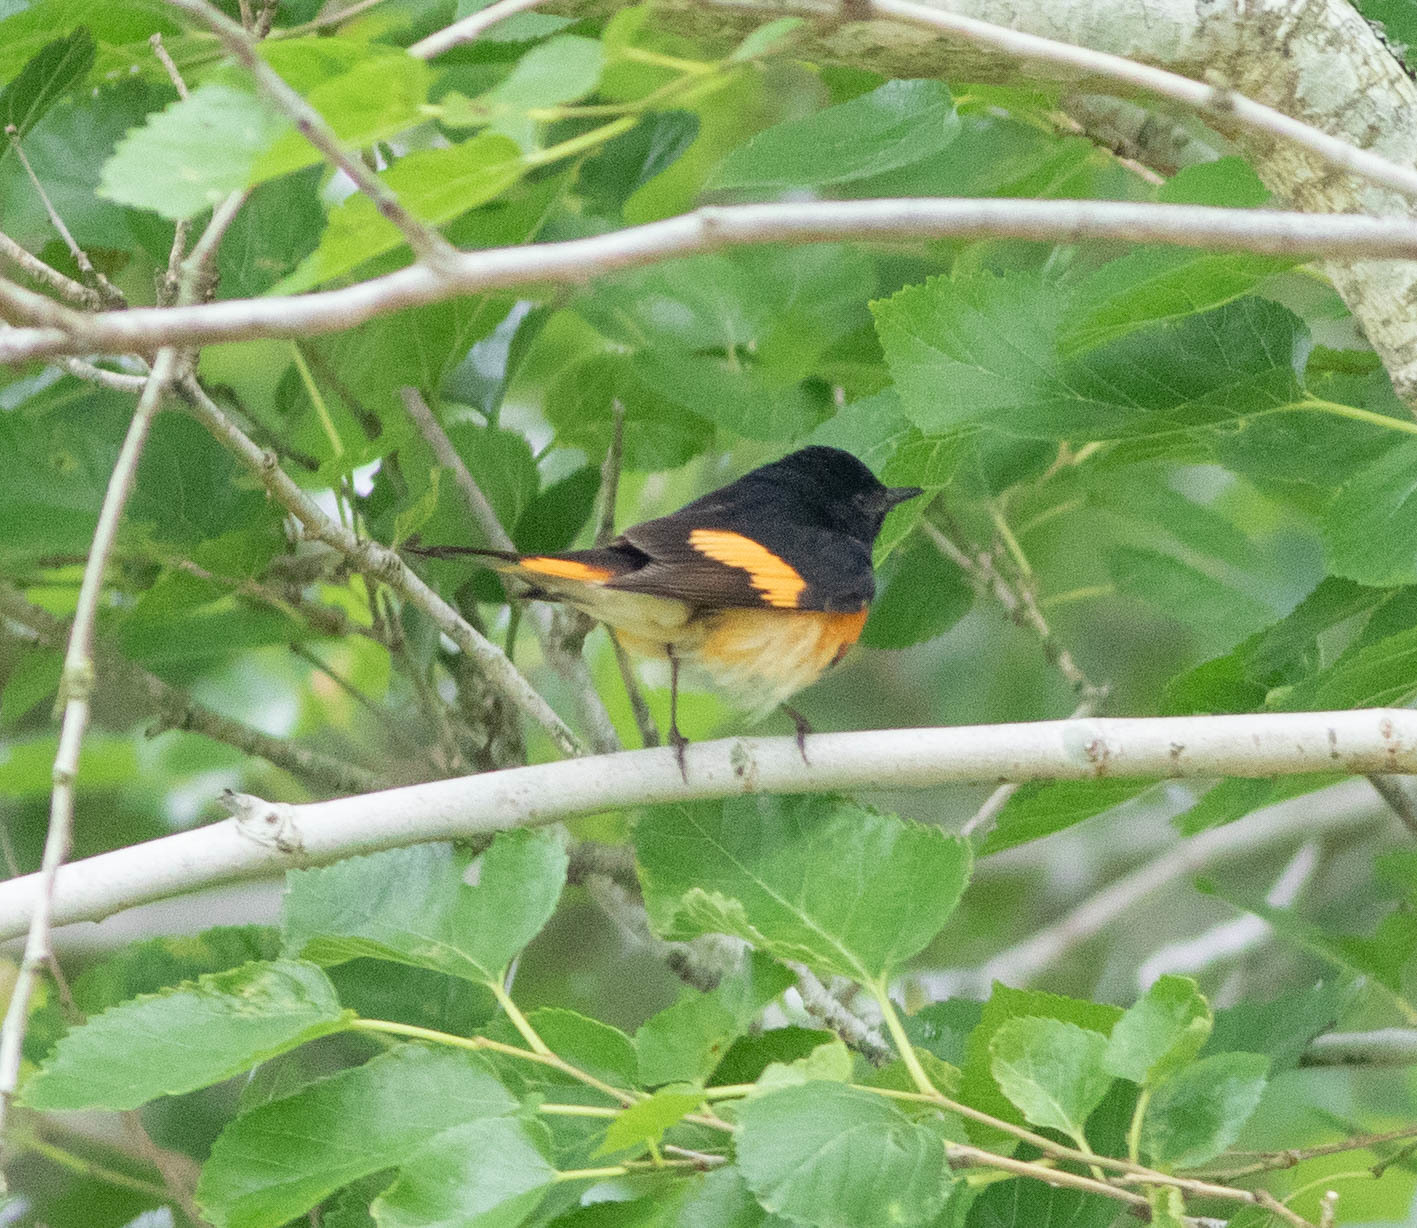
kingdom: Animalia
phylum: Chordata
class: Aves
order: Passeriformes
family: Parulidae
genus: Setophaga
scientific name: Setophaga ruticilla
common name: American redstart
